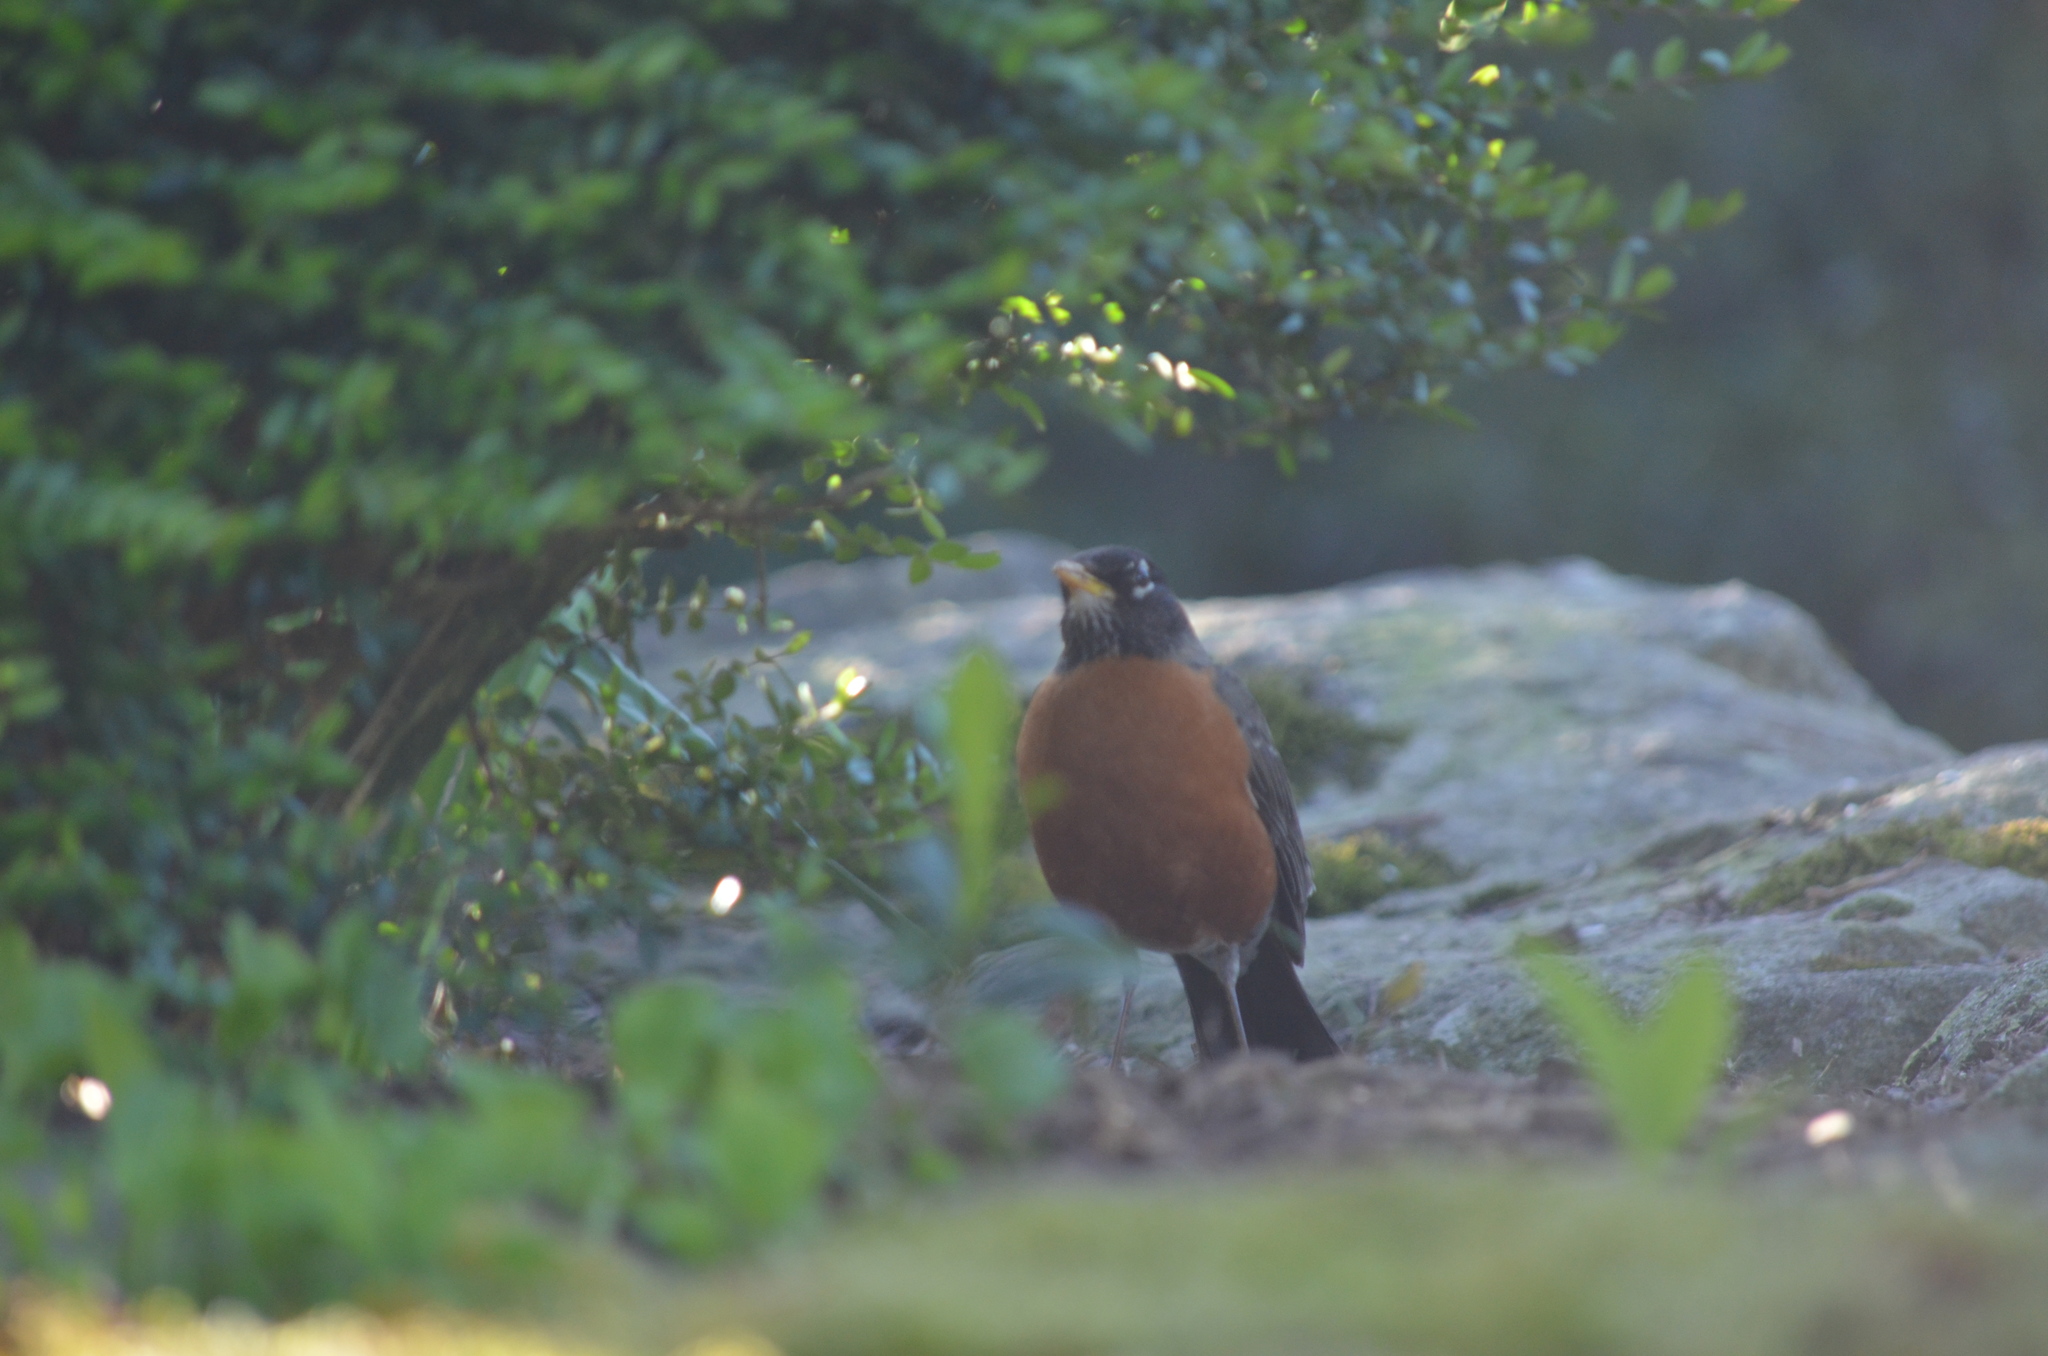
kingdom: Animalia
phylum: Chordata
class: Aves
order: Passeriformes
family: Turdidae
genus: Turdus
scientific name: Turdus migratorius
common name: American robin
